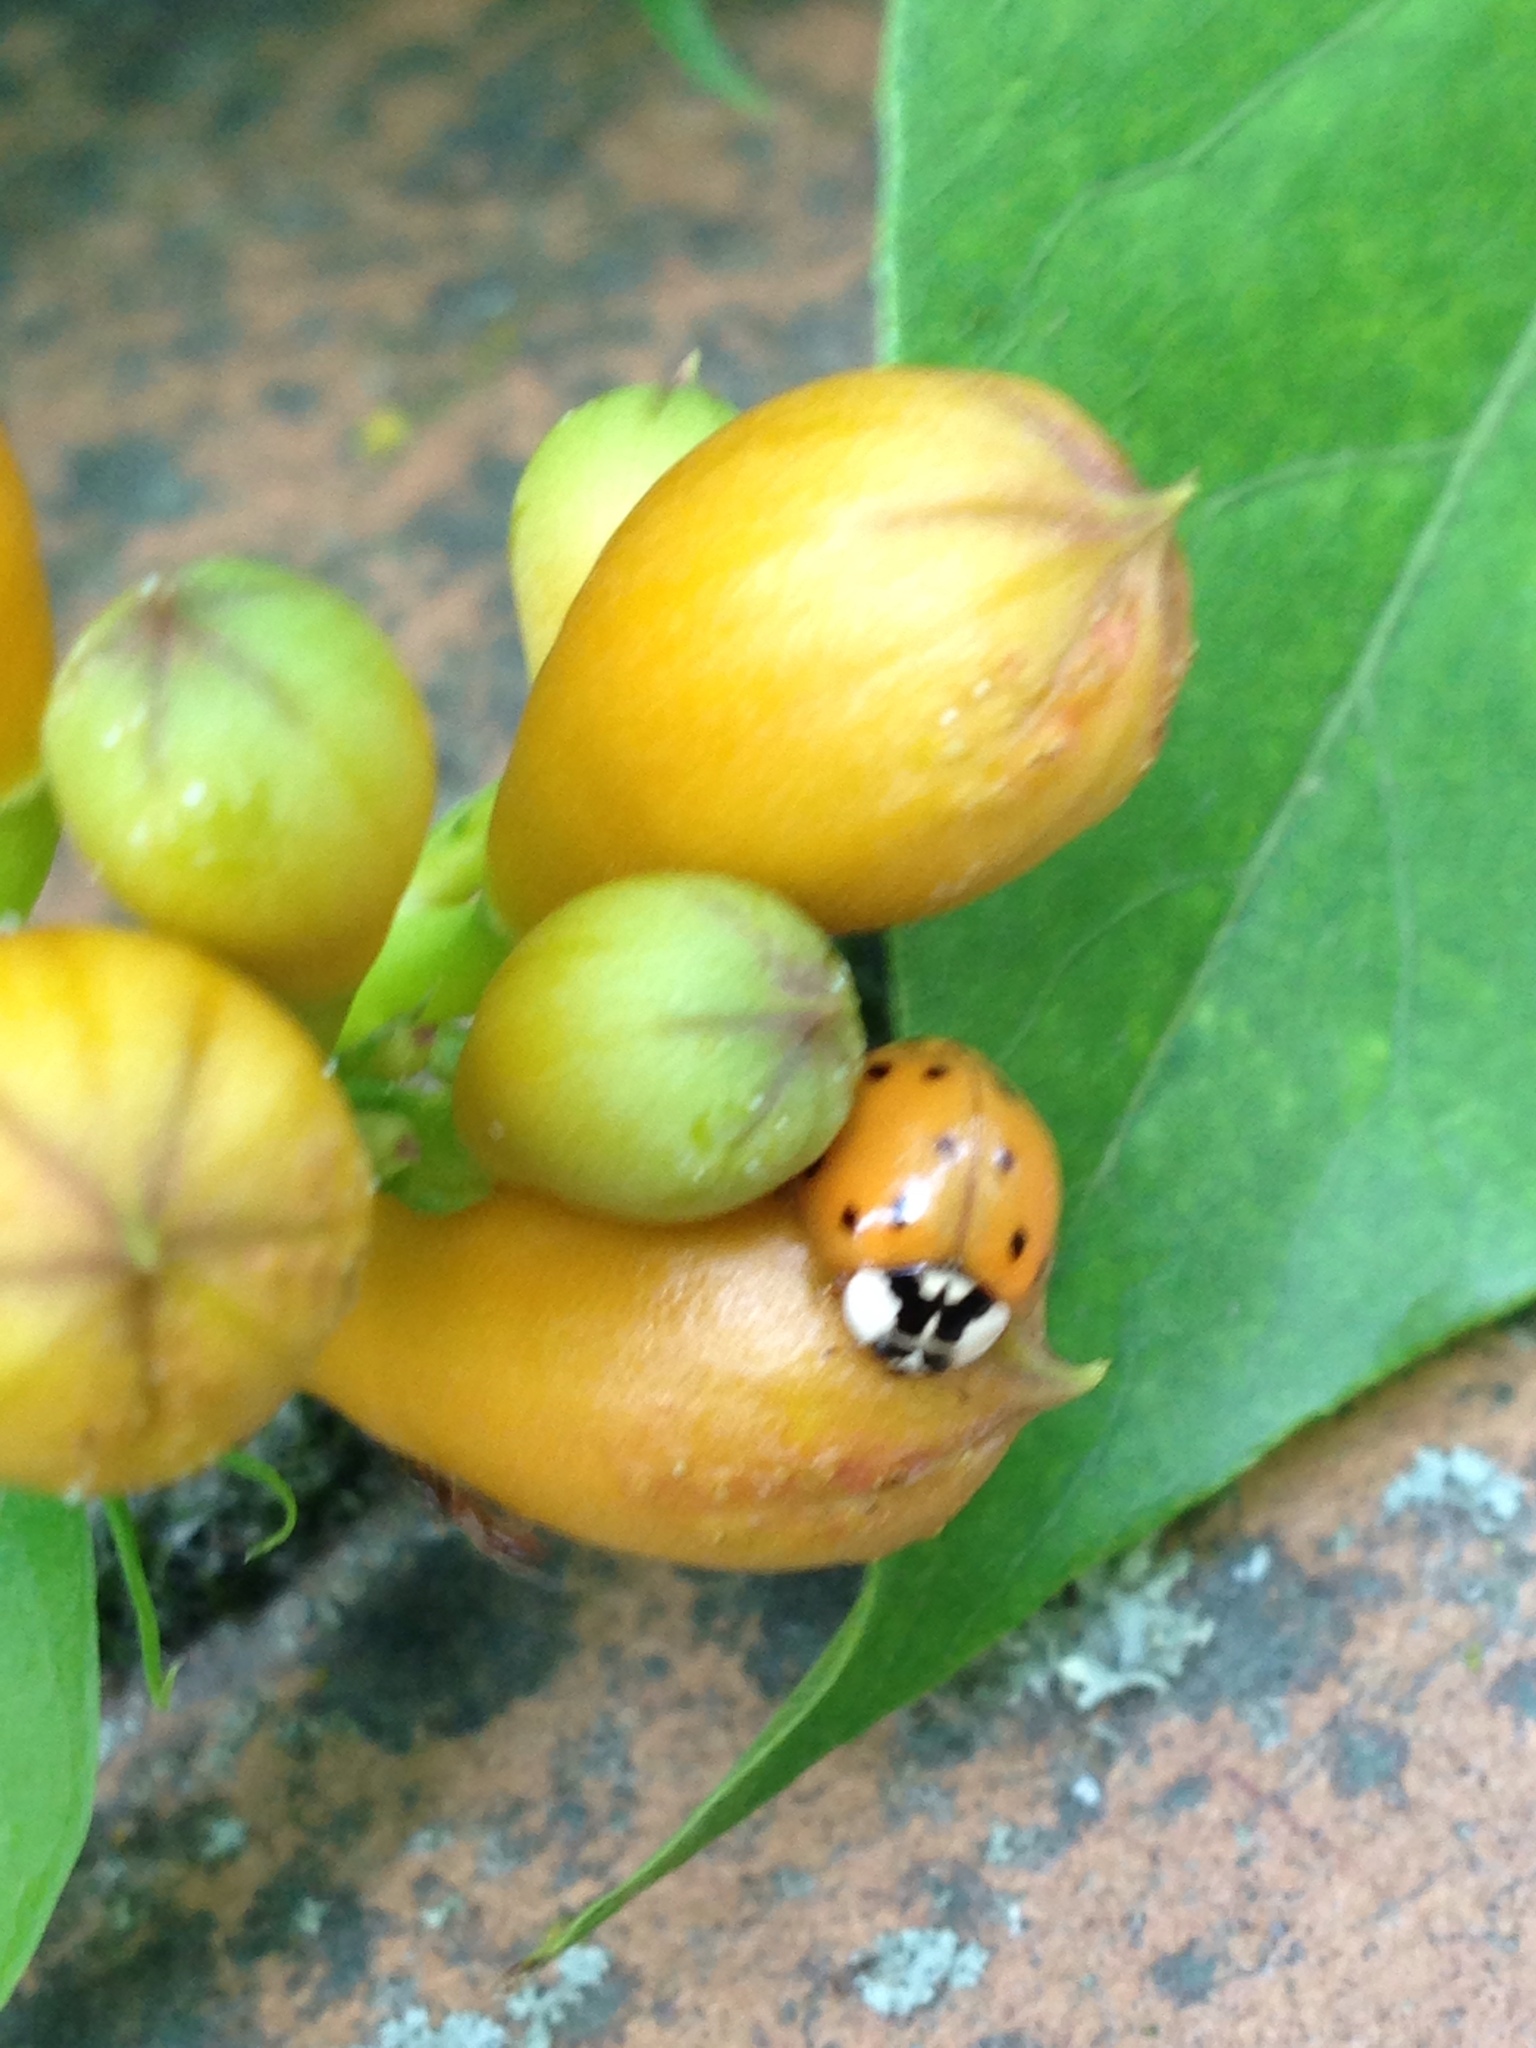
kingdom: Animalia
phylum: Arthropoda
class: Insecta
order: Coleoptera
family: Coccinellidae
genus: Harmonia
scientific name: Harmonia axyridis
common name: Harlequin ladybird
